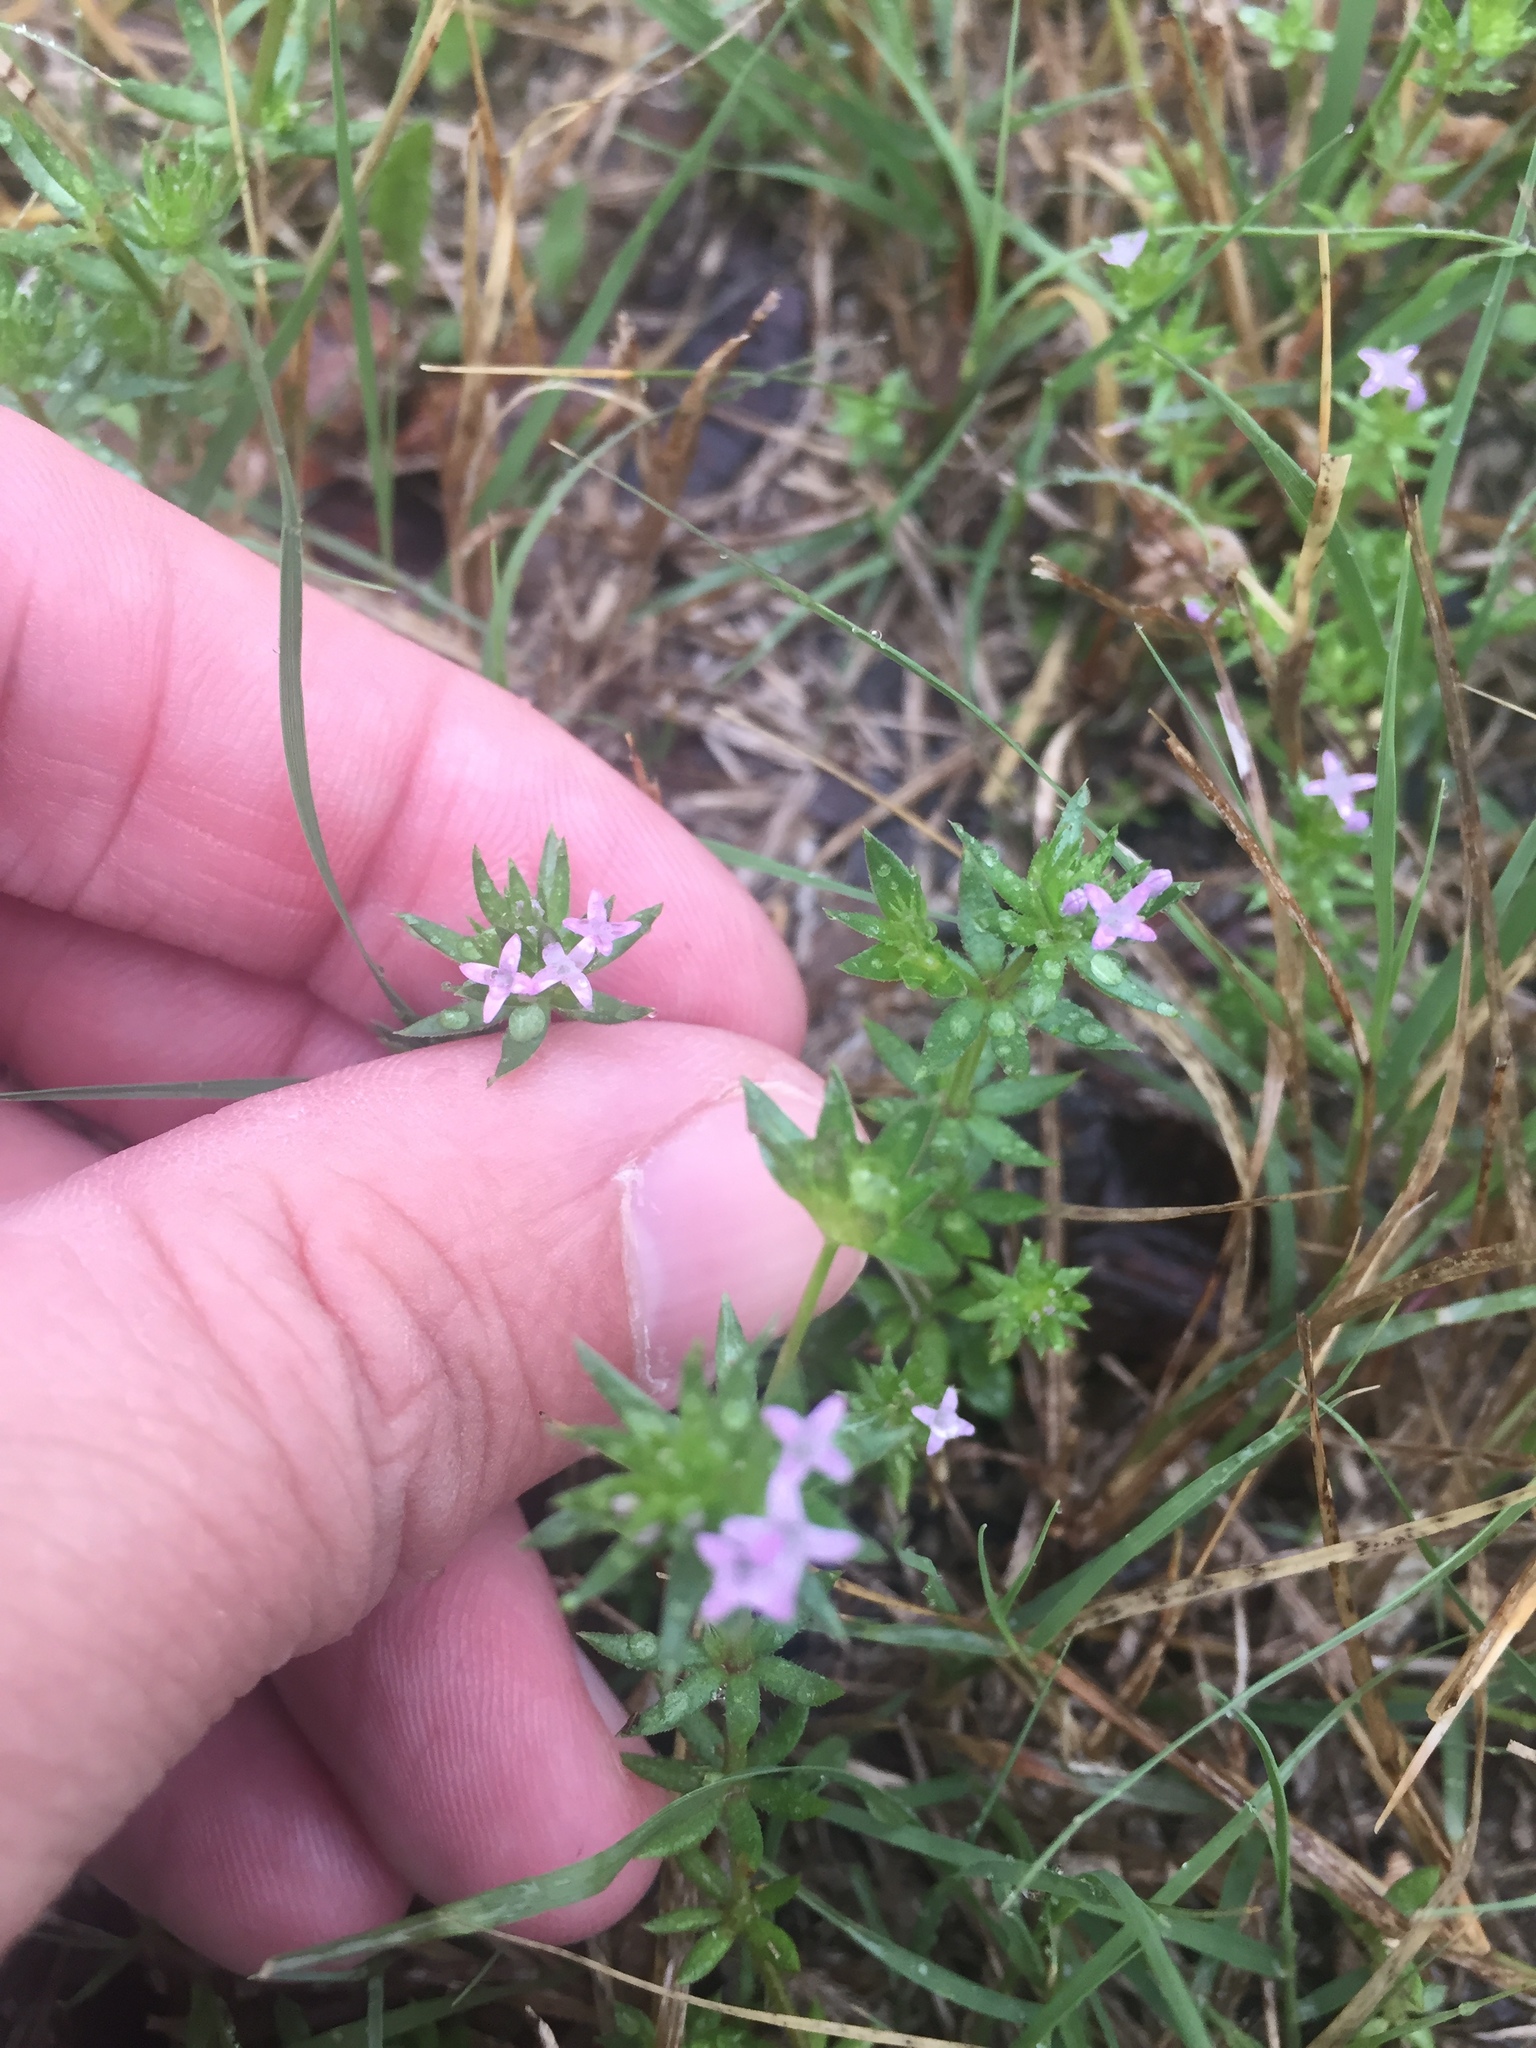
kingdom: Plantae
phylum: Tracheophyta
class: Magnoliopsida
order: Gentianales
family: Rubiaceae
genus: Sherardia
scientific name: Sherardia arvensis
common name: Field madder
